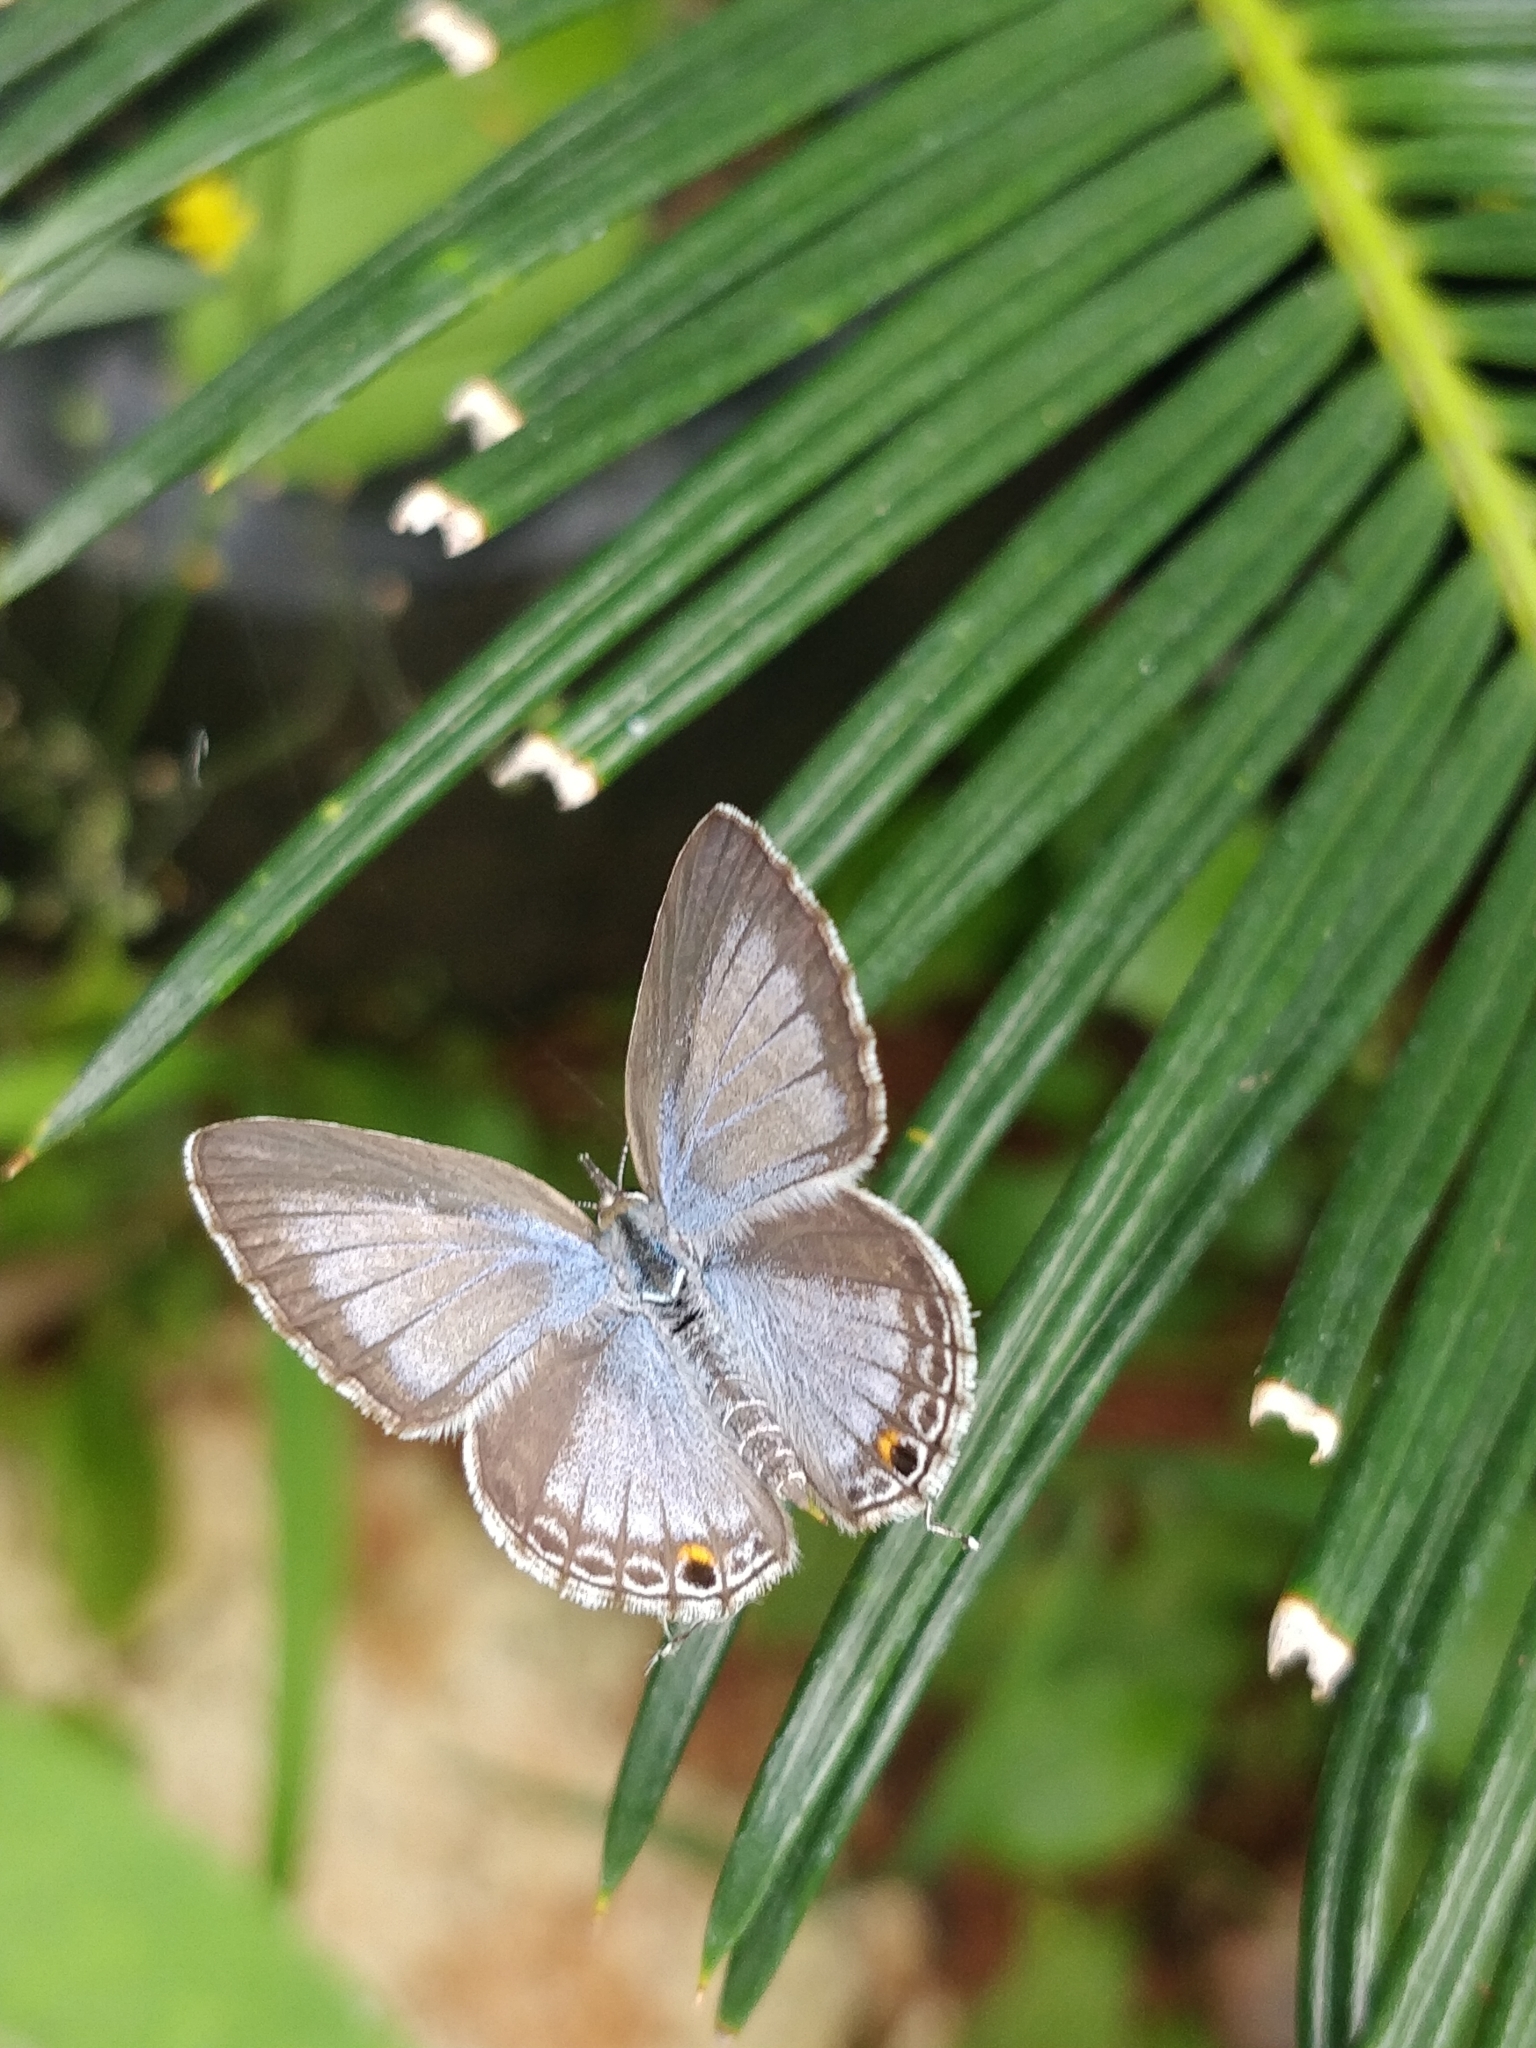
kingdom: Animalia
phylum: Arthropoda
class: Insecta
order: Lepidoptera
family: Lycaenidae
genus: Luthrodes
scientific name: Luthrodes pandava
